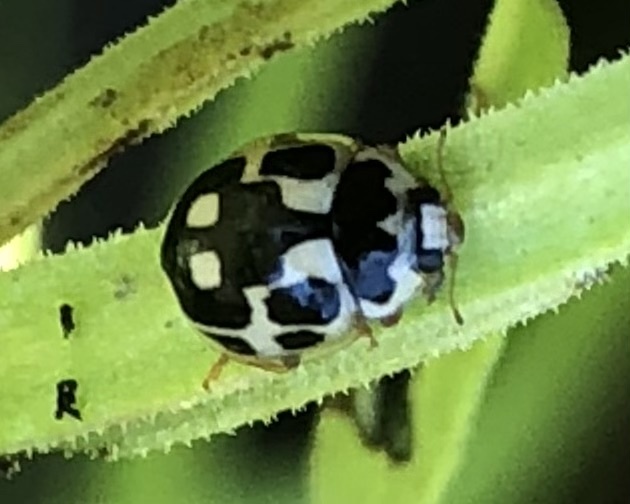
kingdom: Animalia
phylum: Arthropoda
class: Insecta
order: Coleoptera
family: Coccinellidae
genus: Propylaea
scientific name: Propylaea quatuordecimpunctata
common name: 14-spotted ladybird beetle
